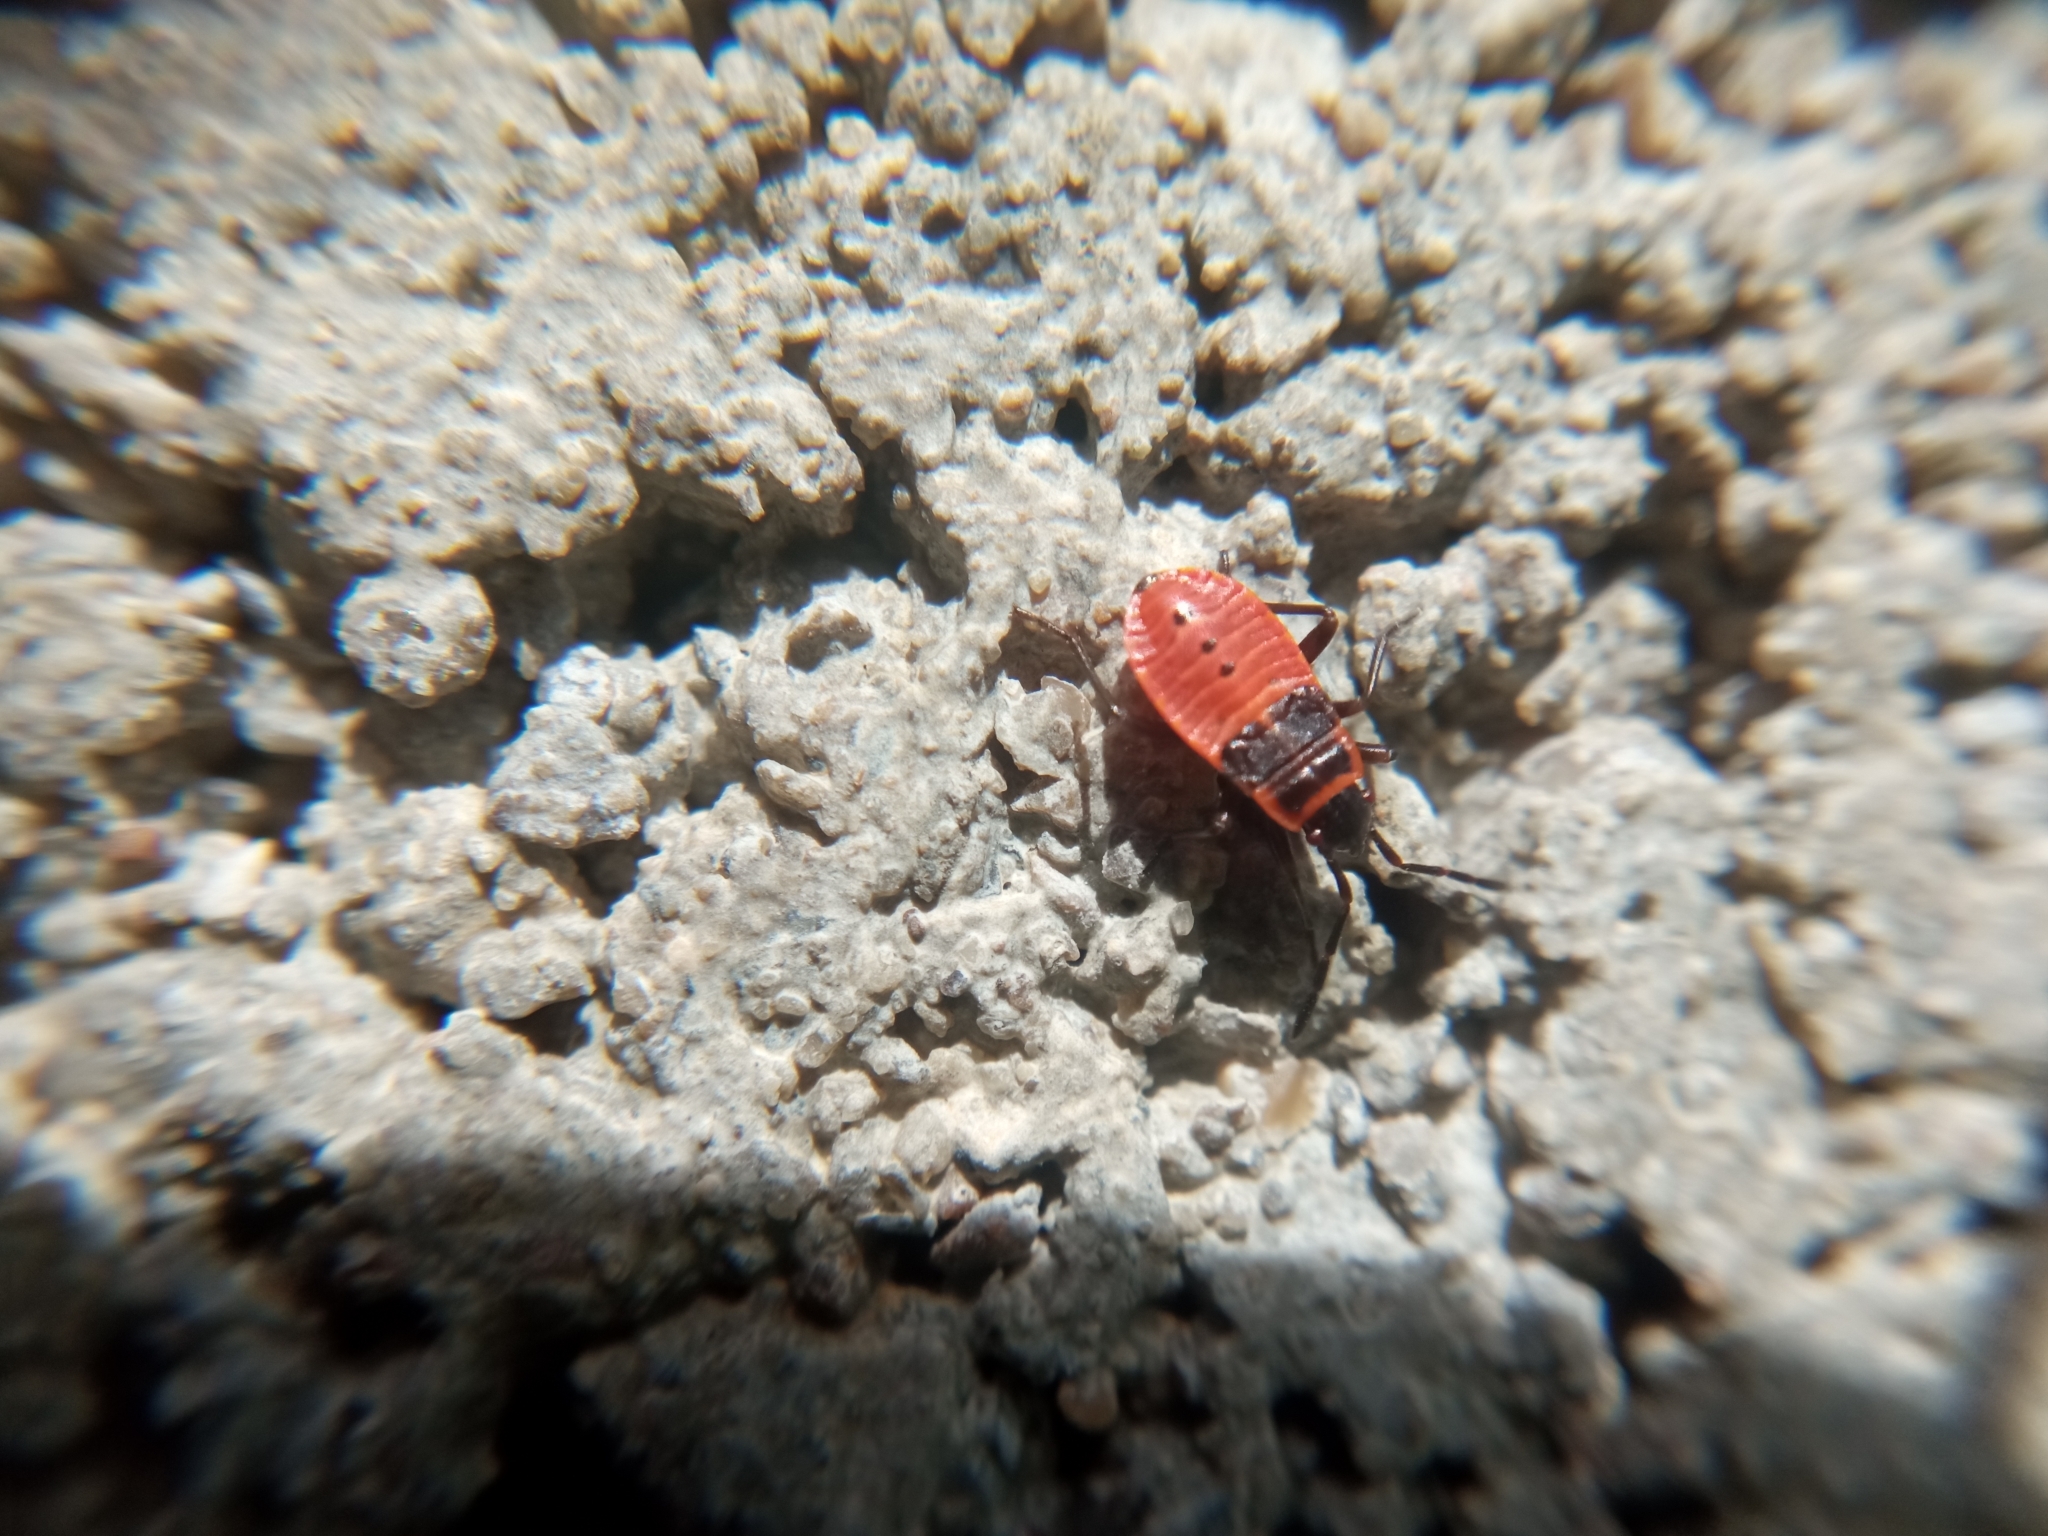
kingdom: Animalia
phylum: Arthropoda
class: Insecta
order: Hemiptera
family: Pyrrhocoridae
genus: Pyrrhocoris
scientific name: Pyrrhocoris apterus
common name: Firebug
